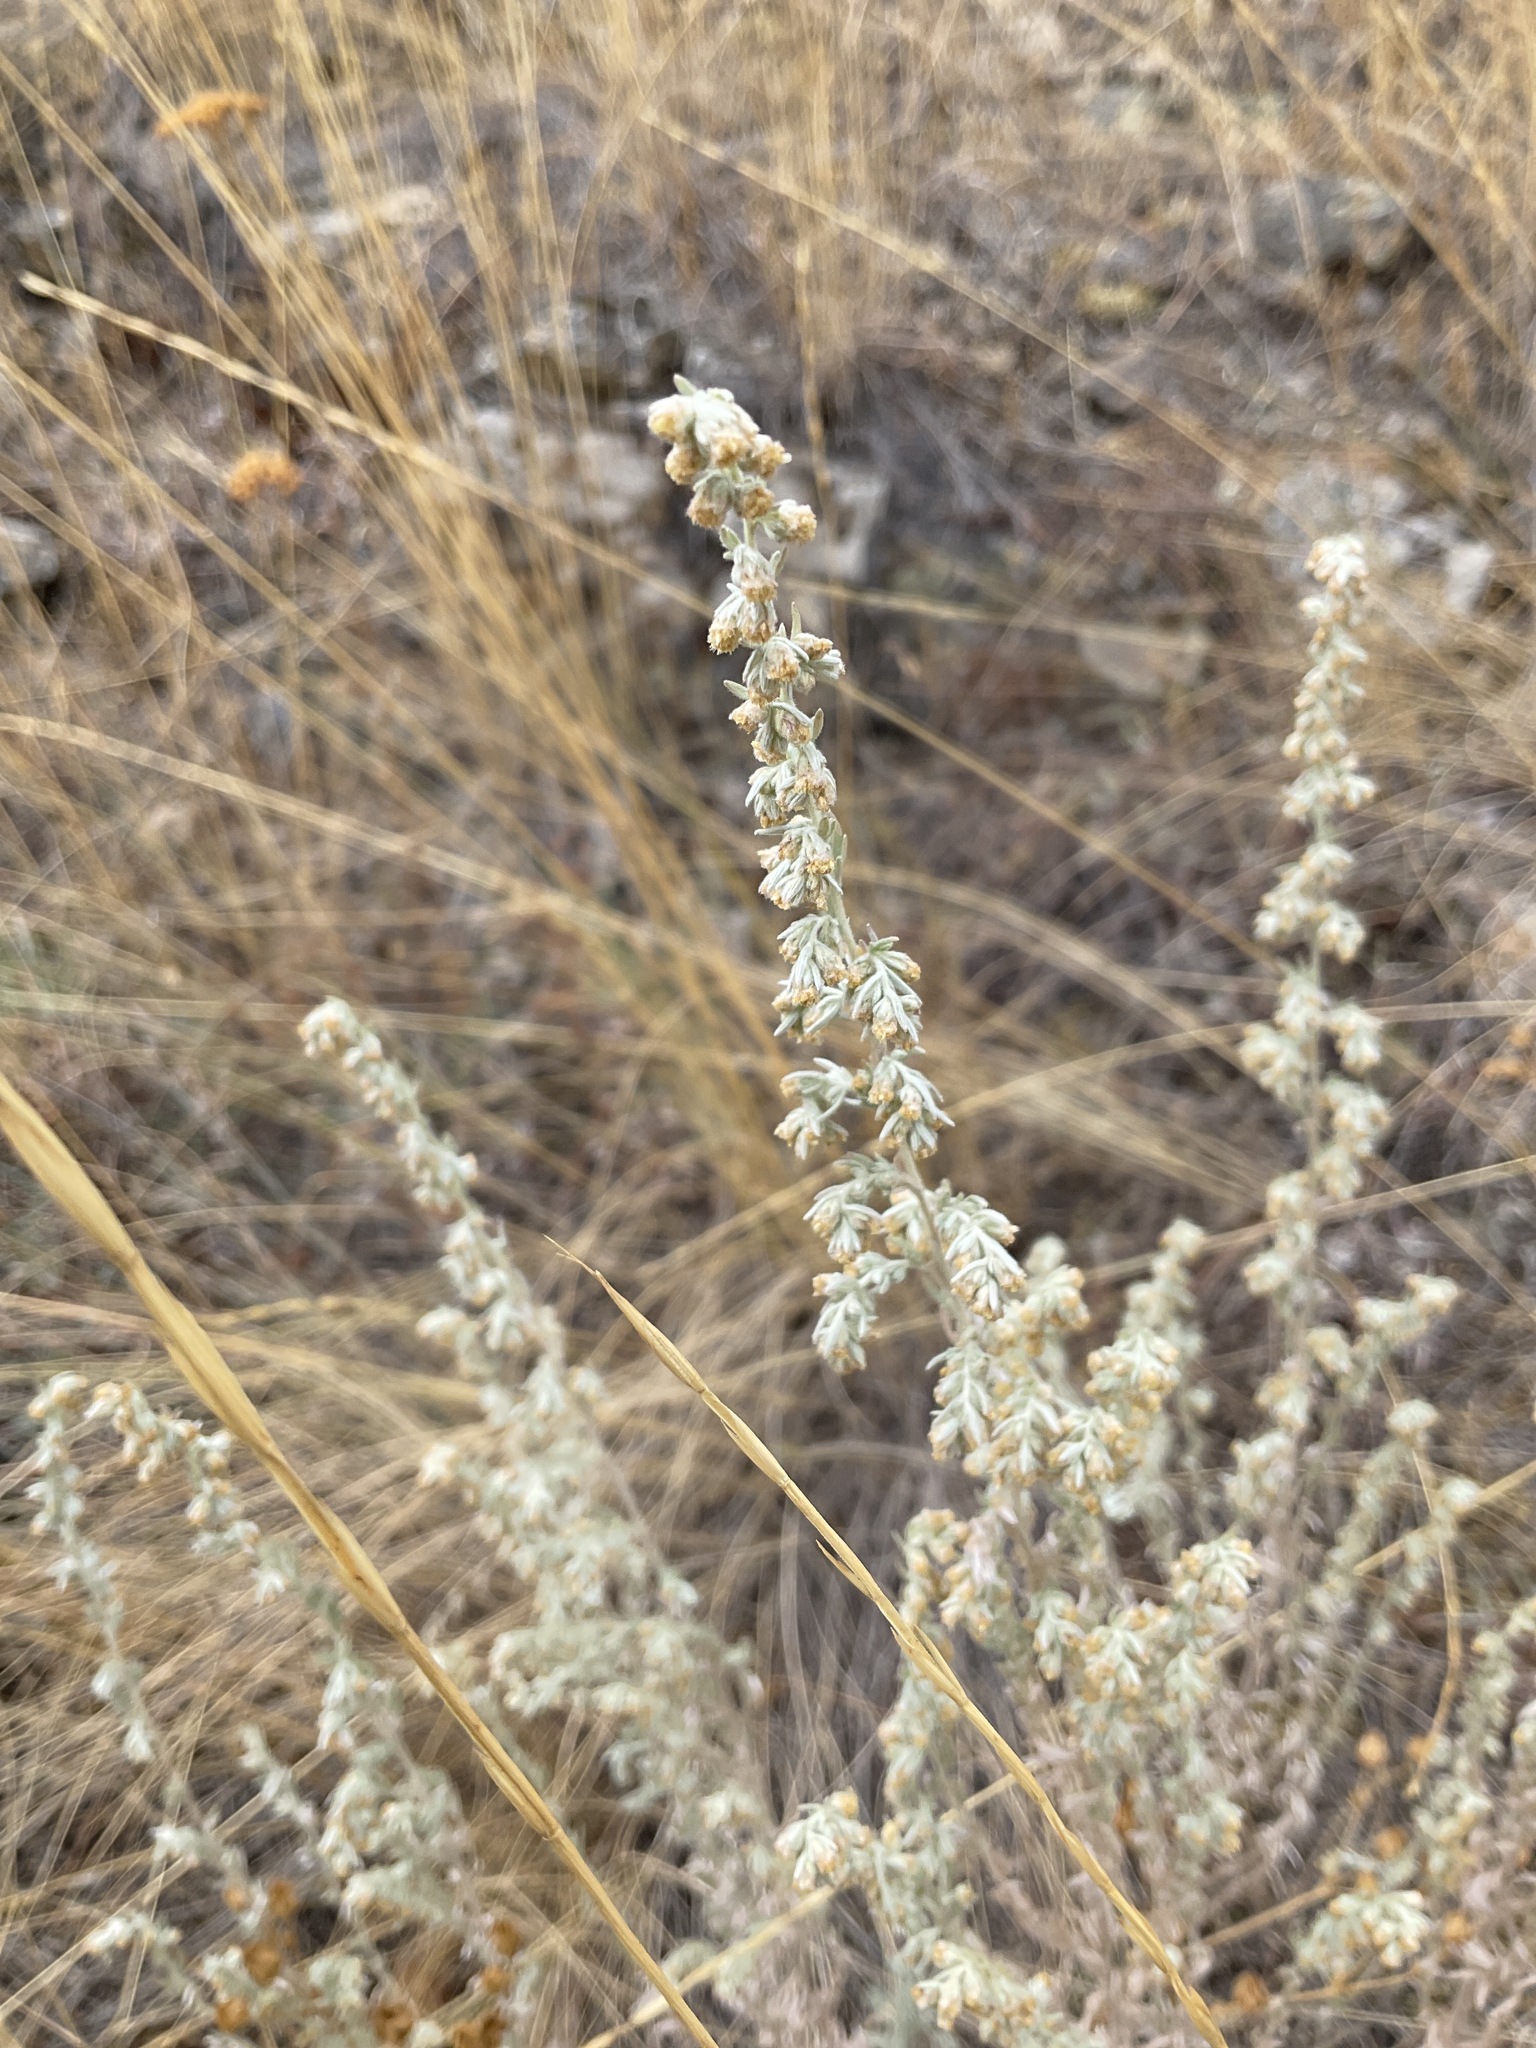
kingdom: Plantae
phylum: Tracheophyta
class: Magnoliopsida
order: Asterales
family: Asteraceae
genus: Artemisia
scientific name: Artemisia frigida
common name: Prairie sagewort
